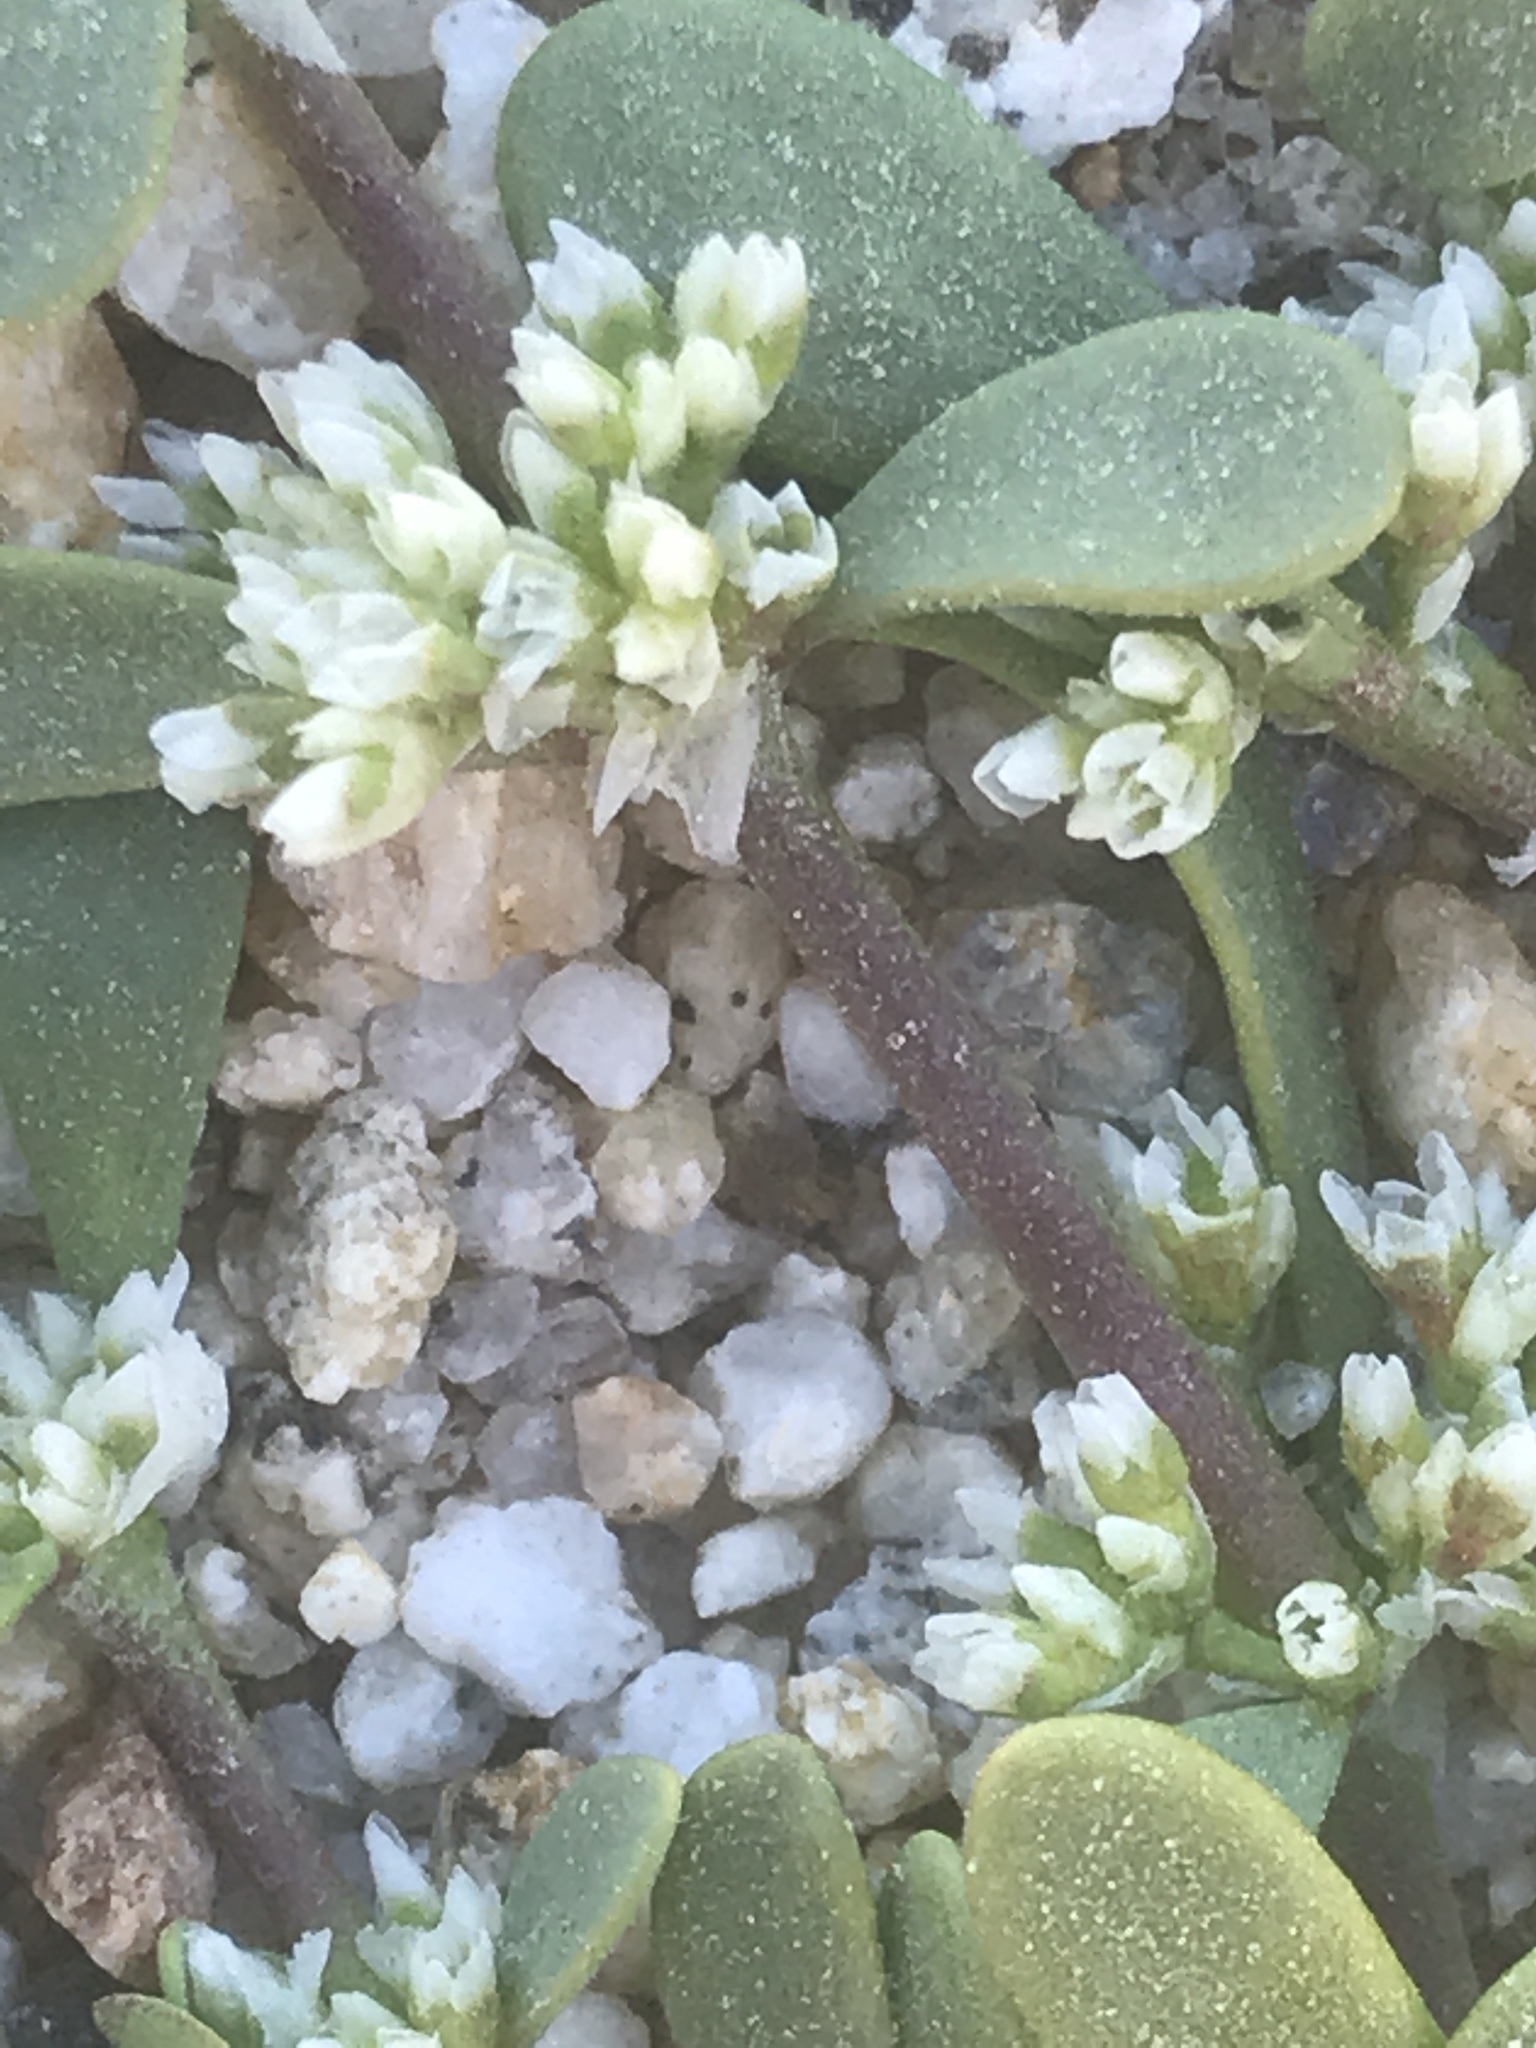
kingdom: Plantae
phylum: Tracheophyta
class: Magnoliopsida
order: Caryophyllales
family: Caryophyllaceae
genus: Achyronychia
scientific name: Achyronychia cooperi
